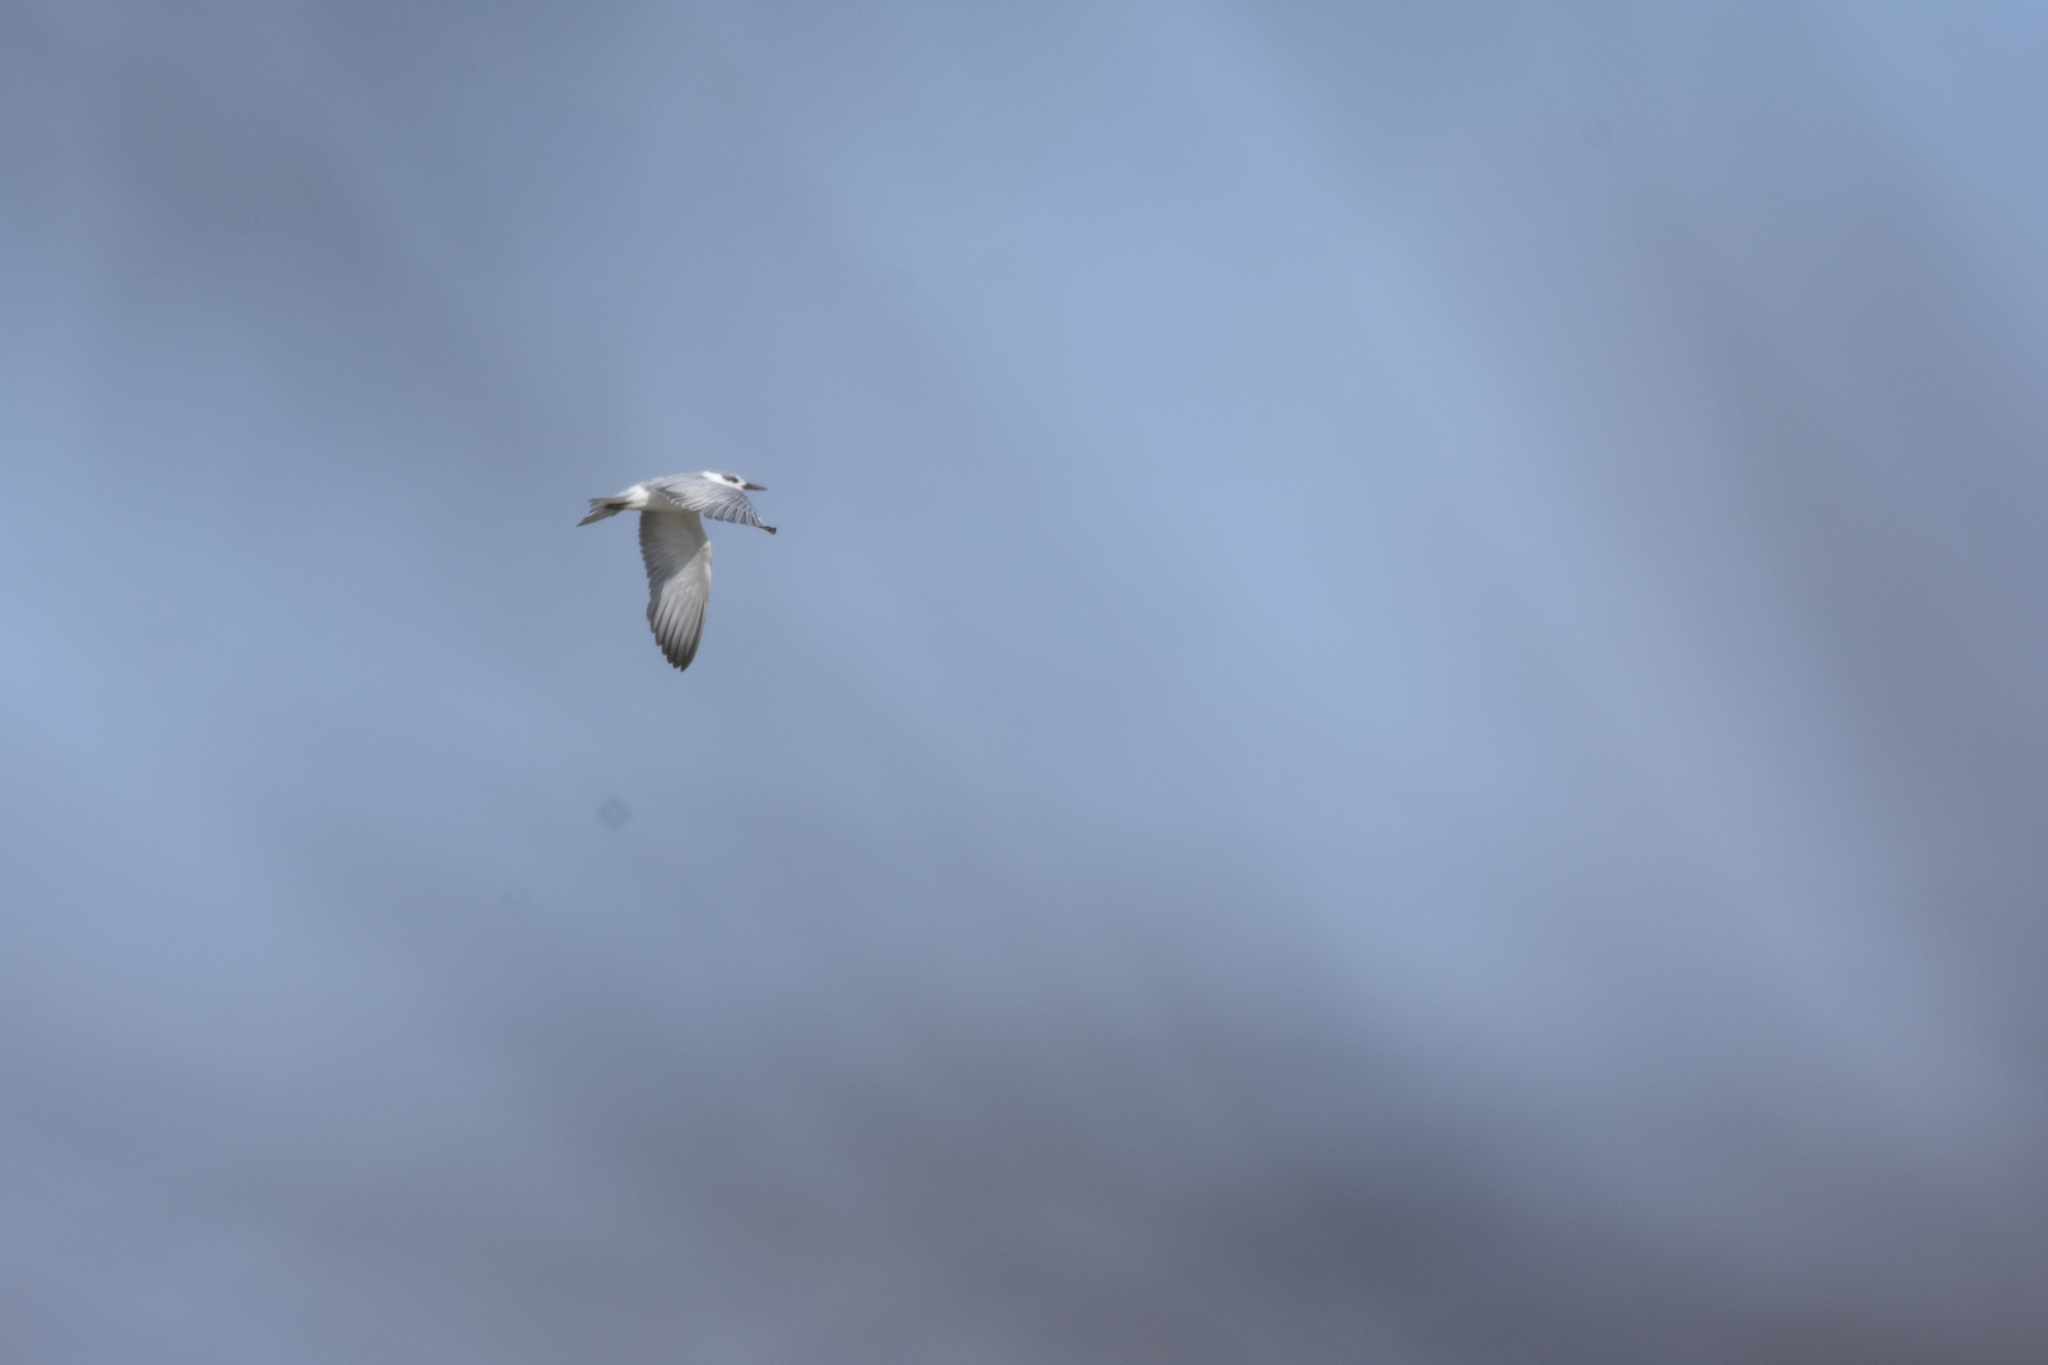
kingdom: Animalia
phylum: Chordata
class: Aves
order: Charadriiformes
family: Laridae
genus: Chlidonias
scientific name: Chlidonias hybrida
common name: Whiskered tern
